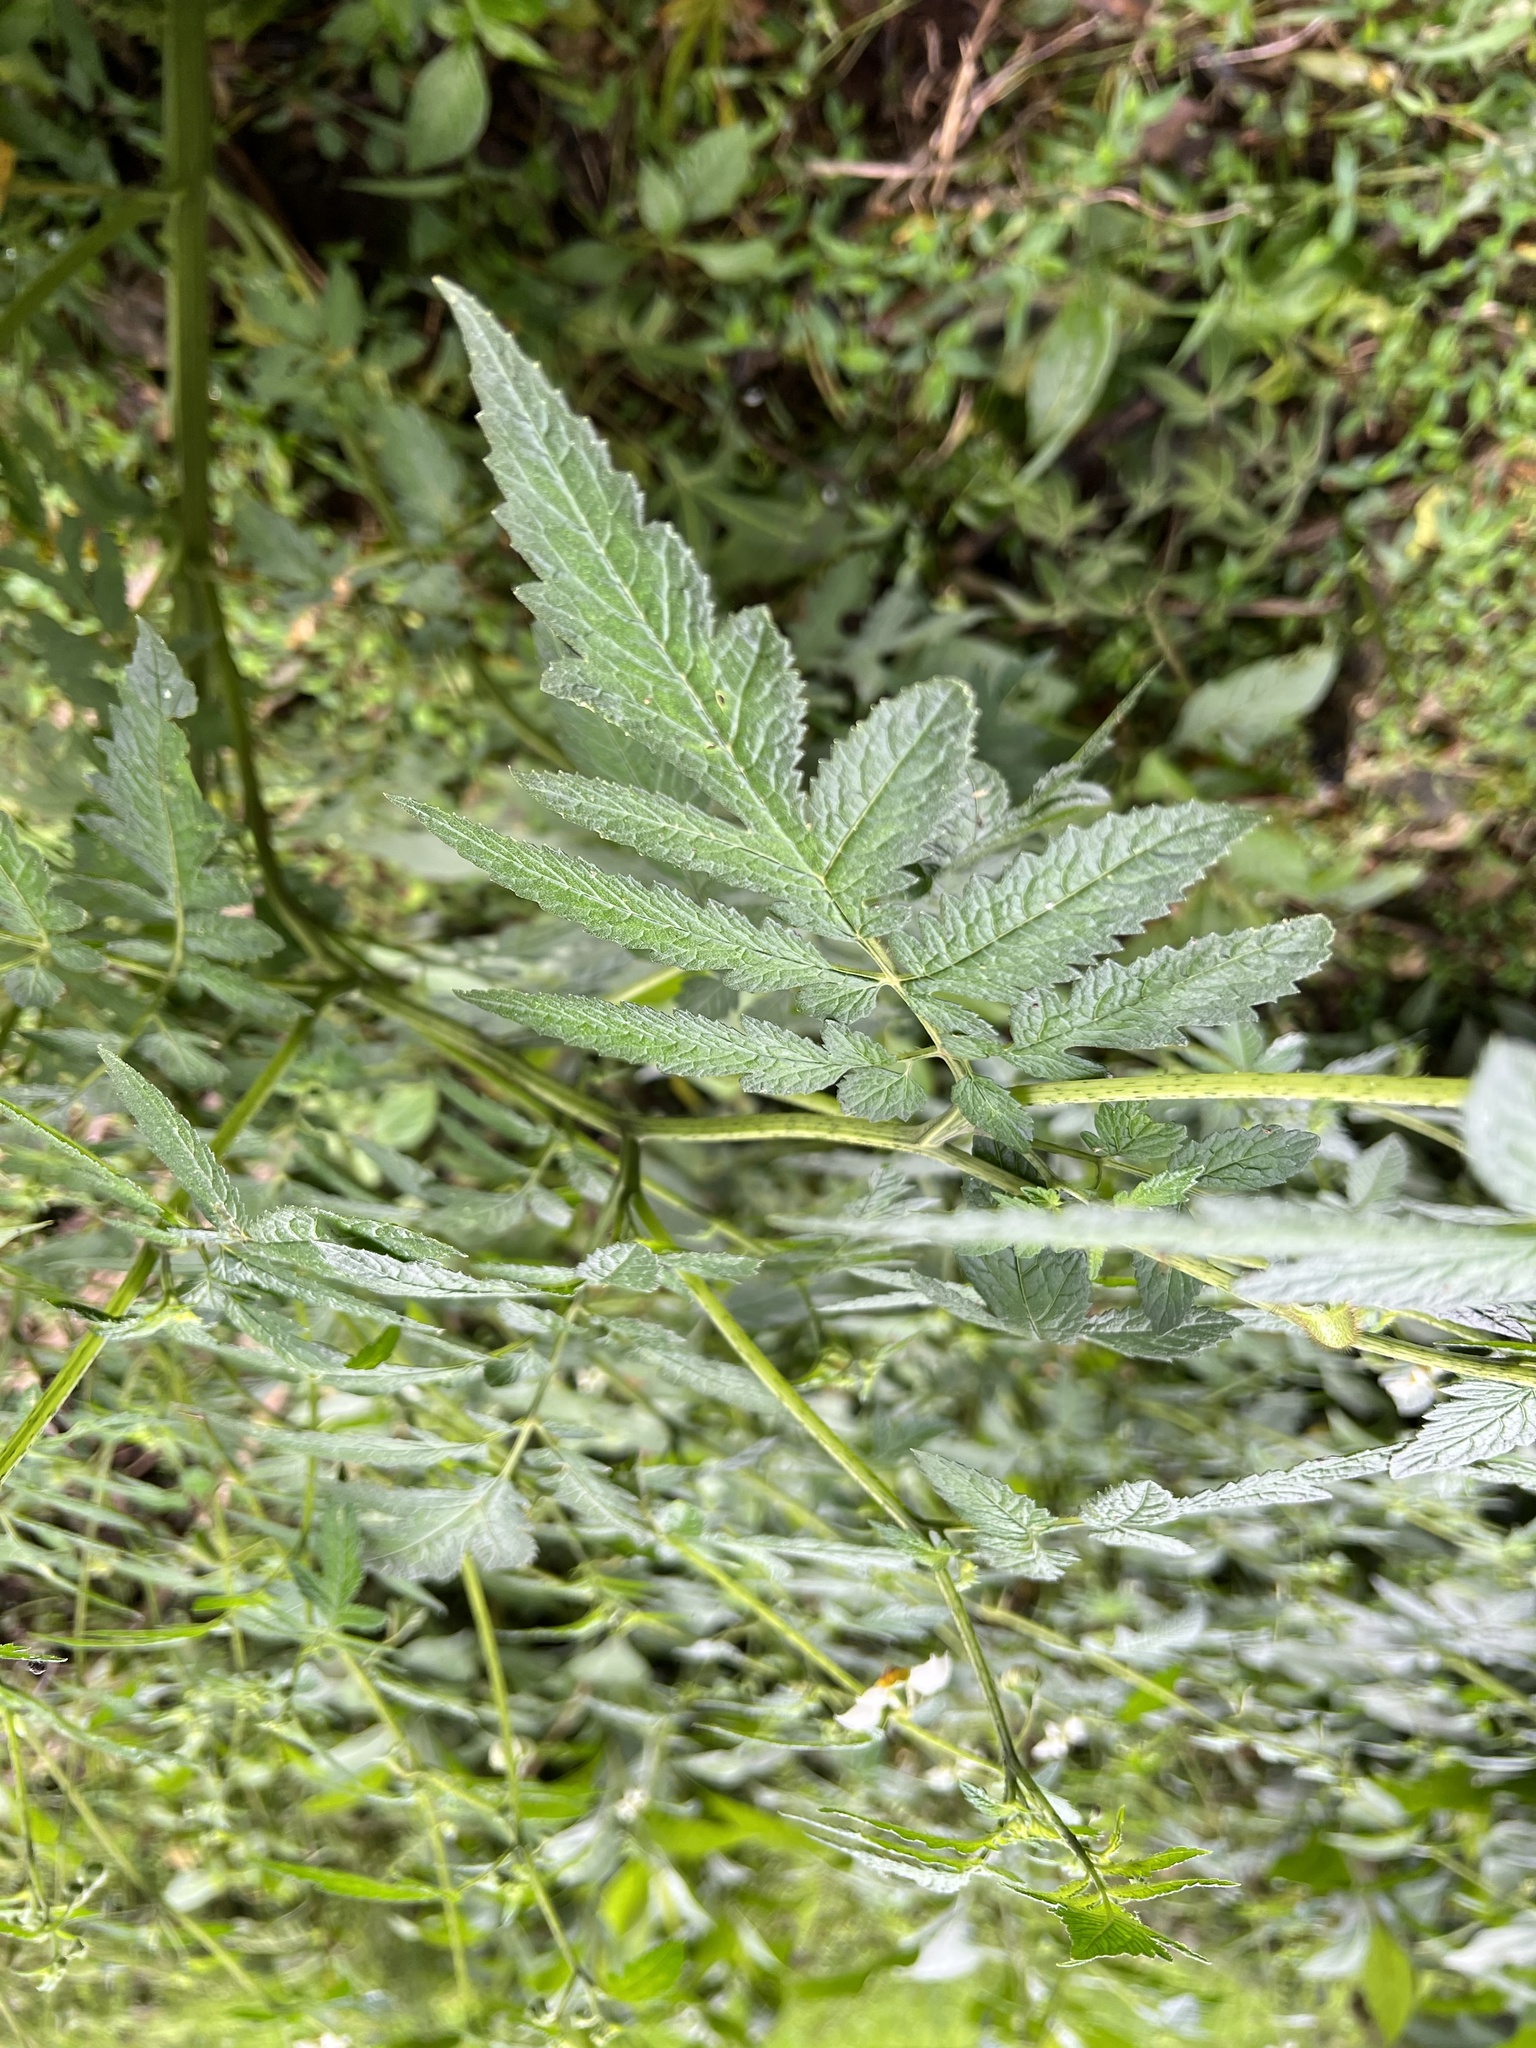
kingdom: Plantae
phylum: Tracheophyta
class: Magnoliopsida
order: Cornales
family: Loasaceae
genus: Nasa
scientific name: Nasa triphylla
